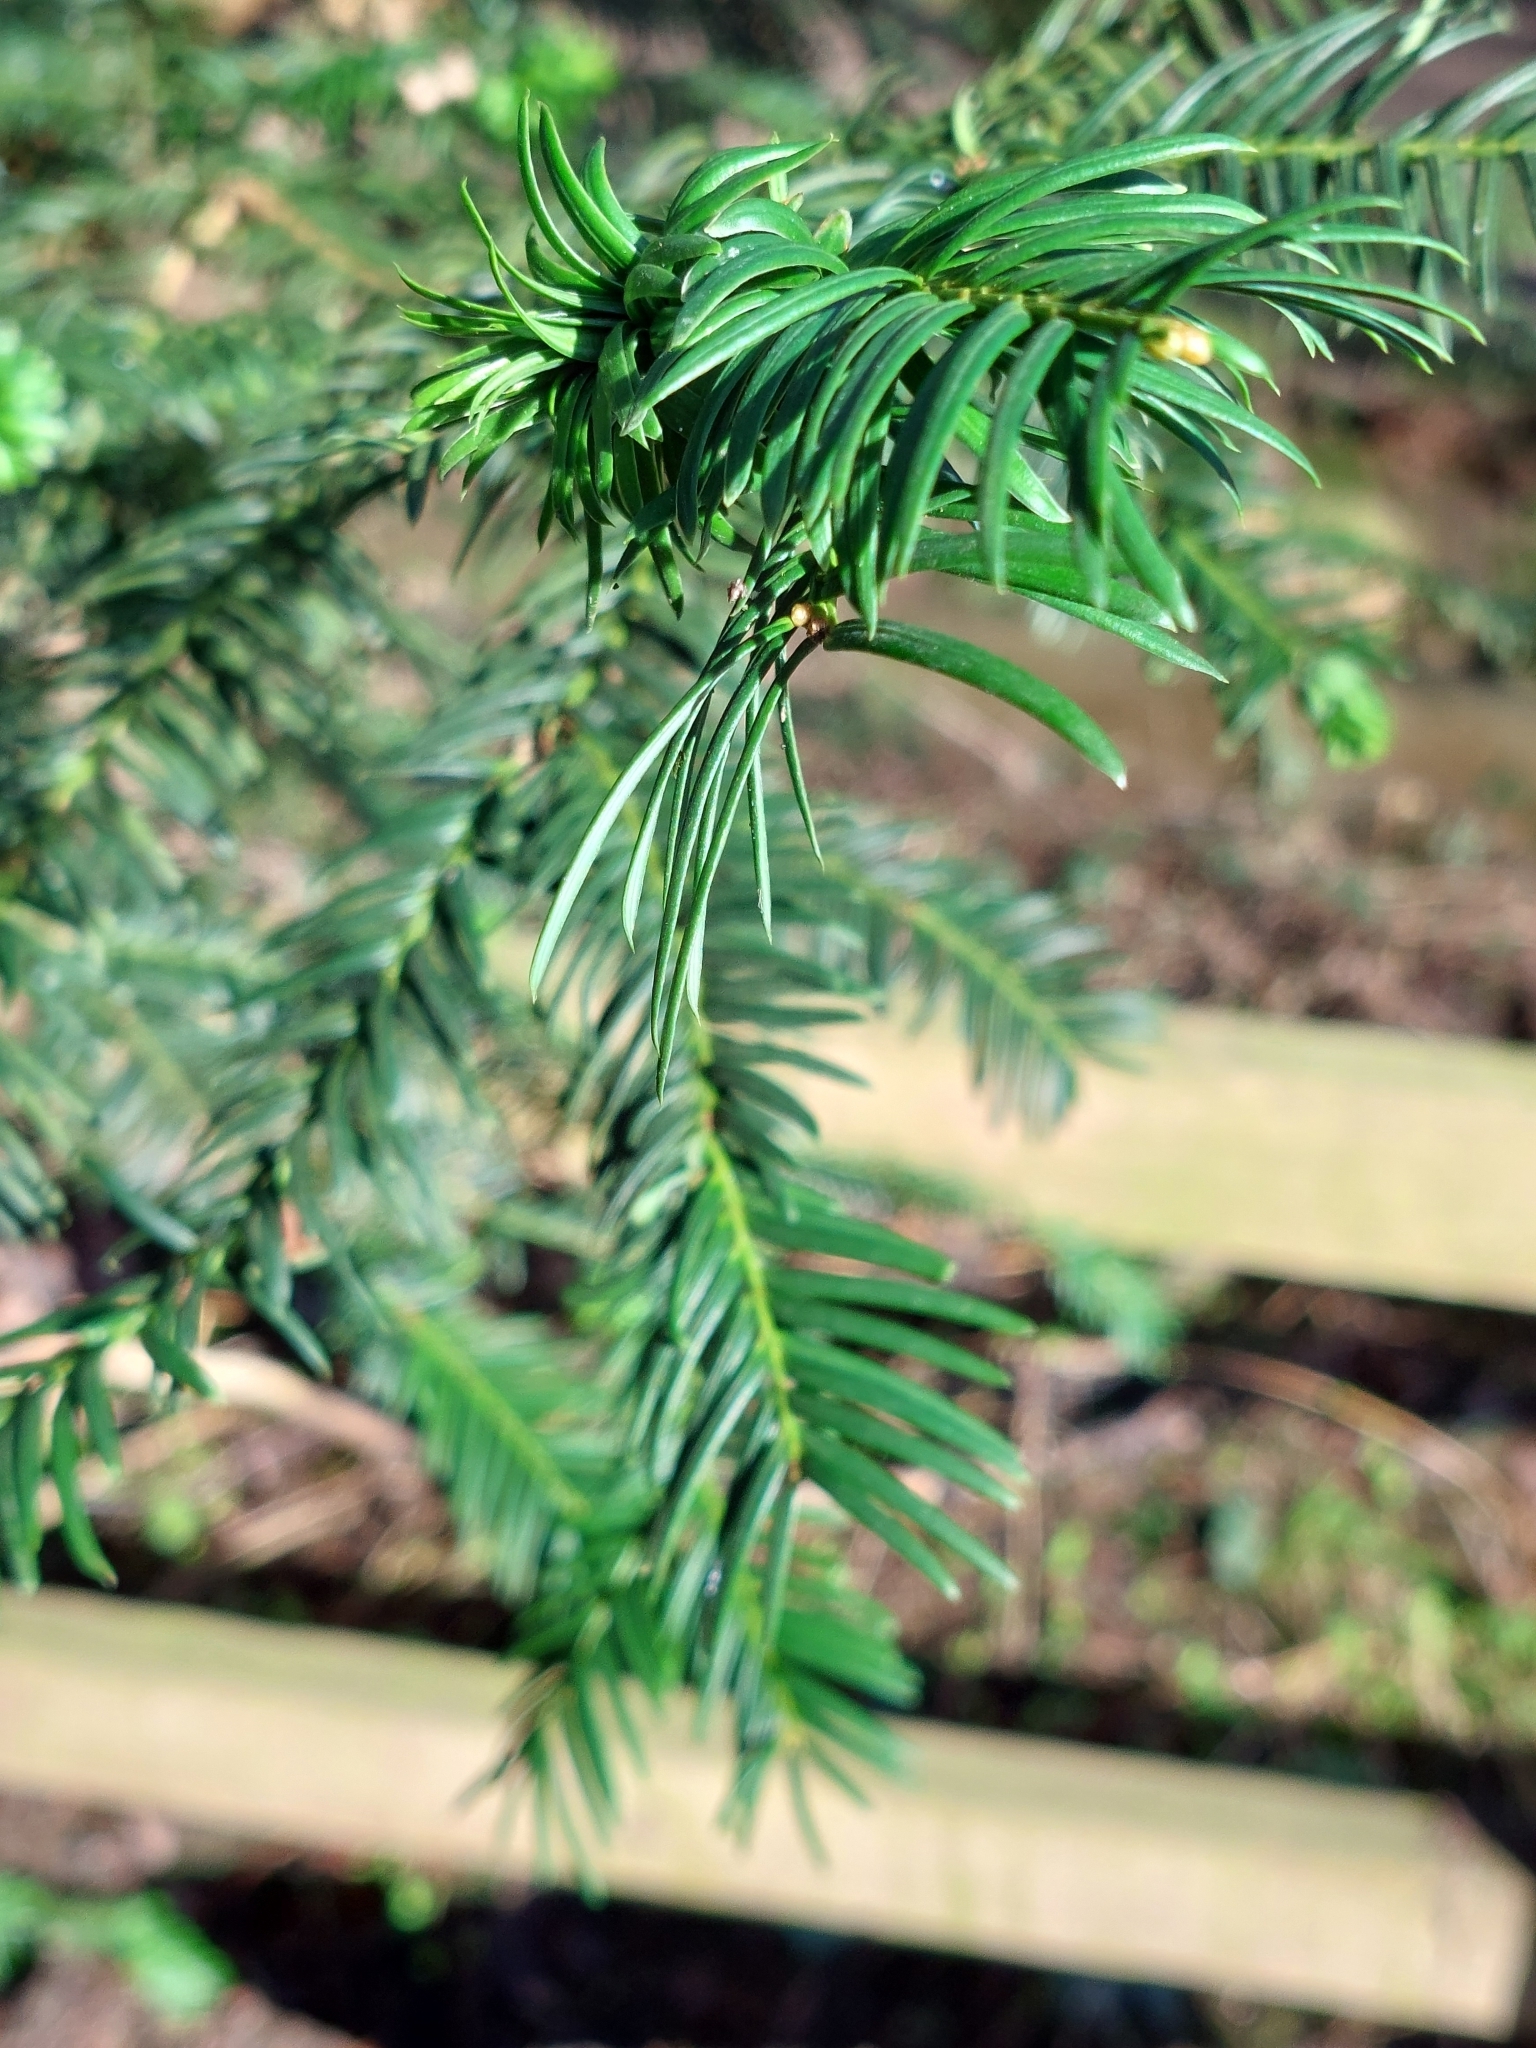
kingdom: Plantae
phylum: Tracheophyta
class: Pinopsida
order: Pinales
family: Taxaceae
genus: Taxus
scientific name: Taxus baccata
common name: Yew
